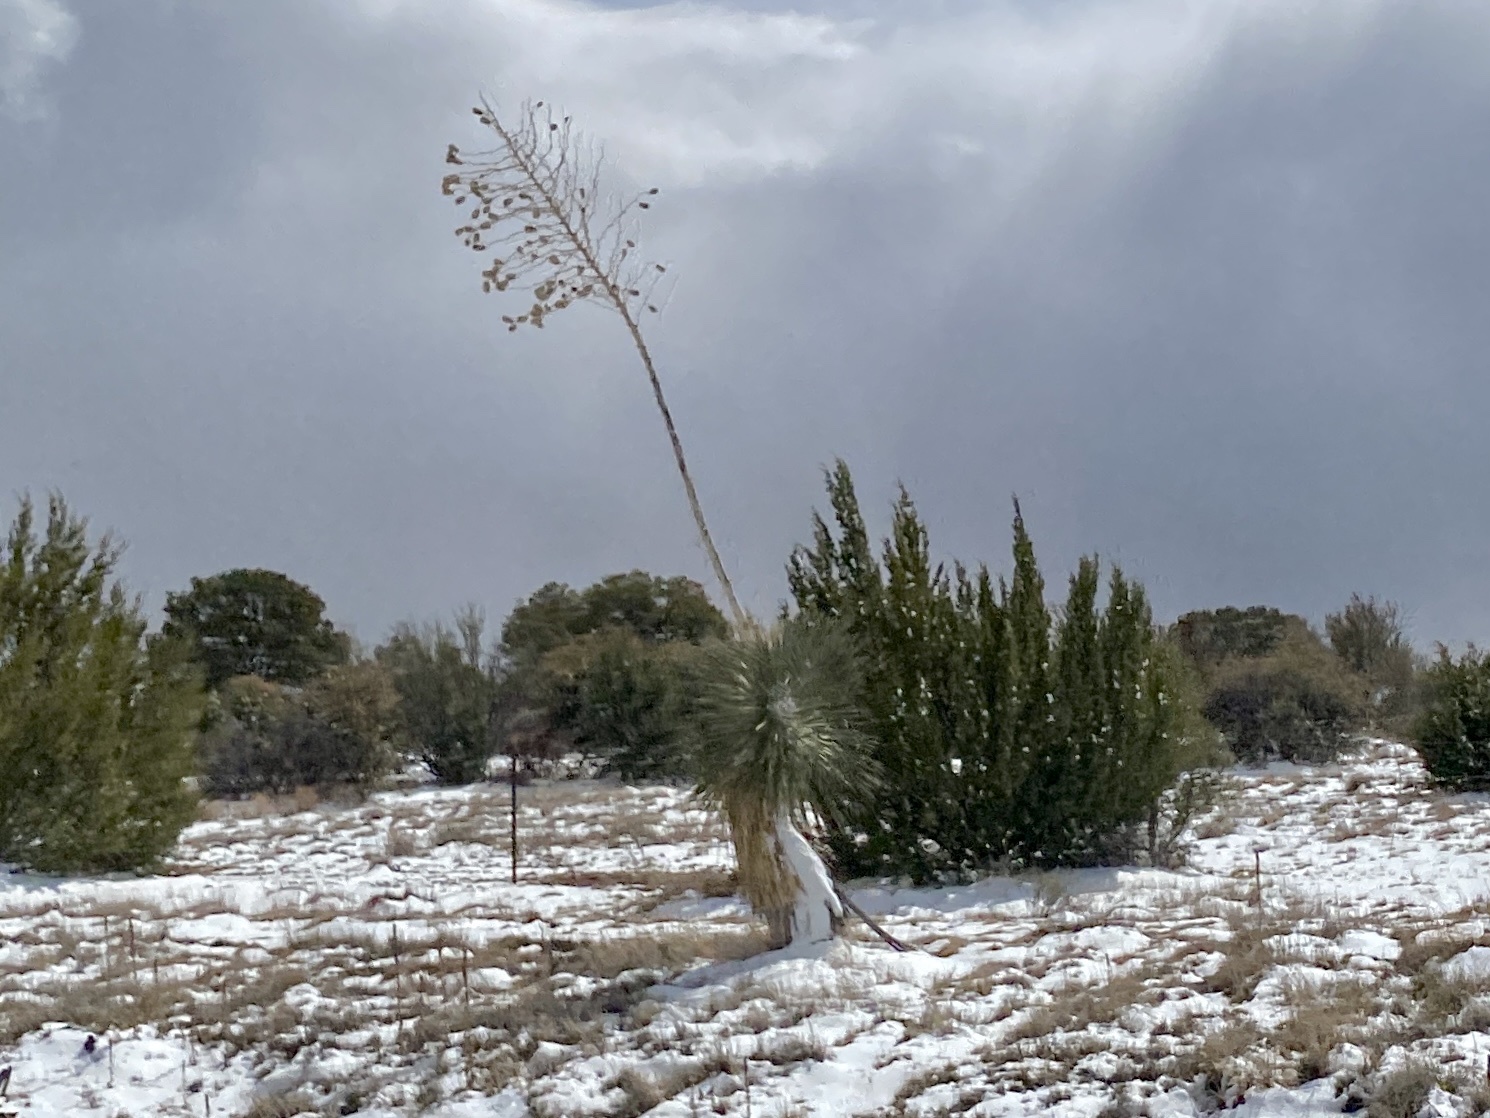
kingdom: Plantae
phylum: Tracheophyta
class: Liliopsida
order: Asparagales
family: Asparagaceae
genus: Yucca
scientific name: Yucca elata
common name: Palmella
